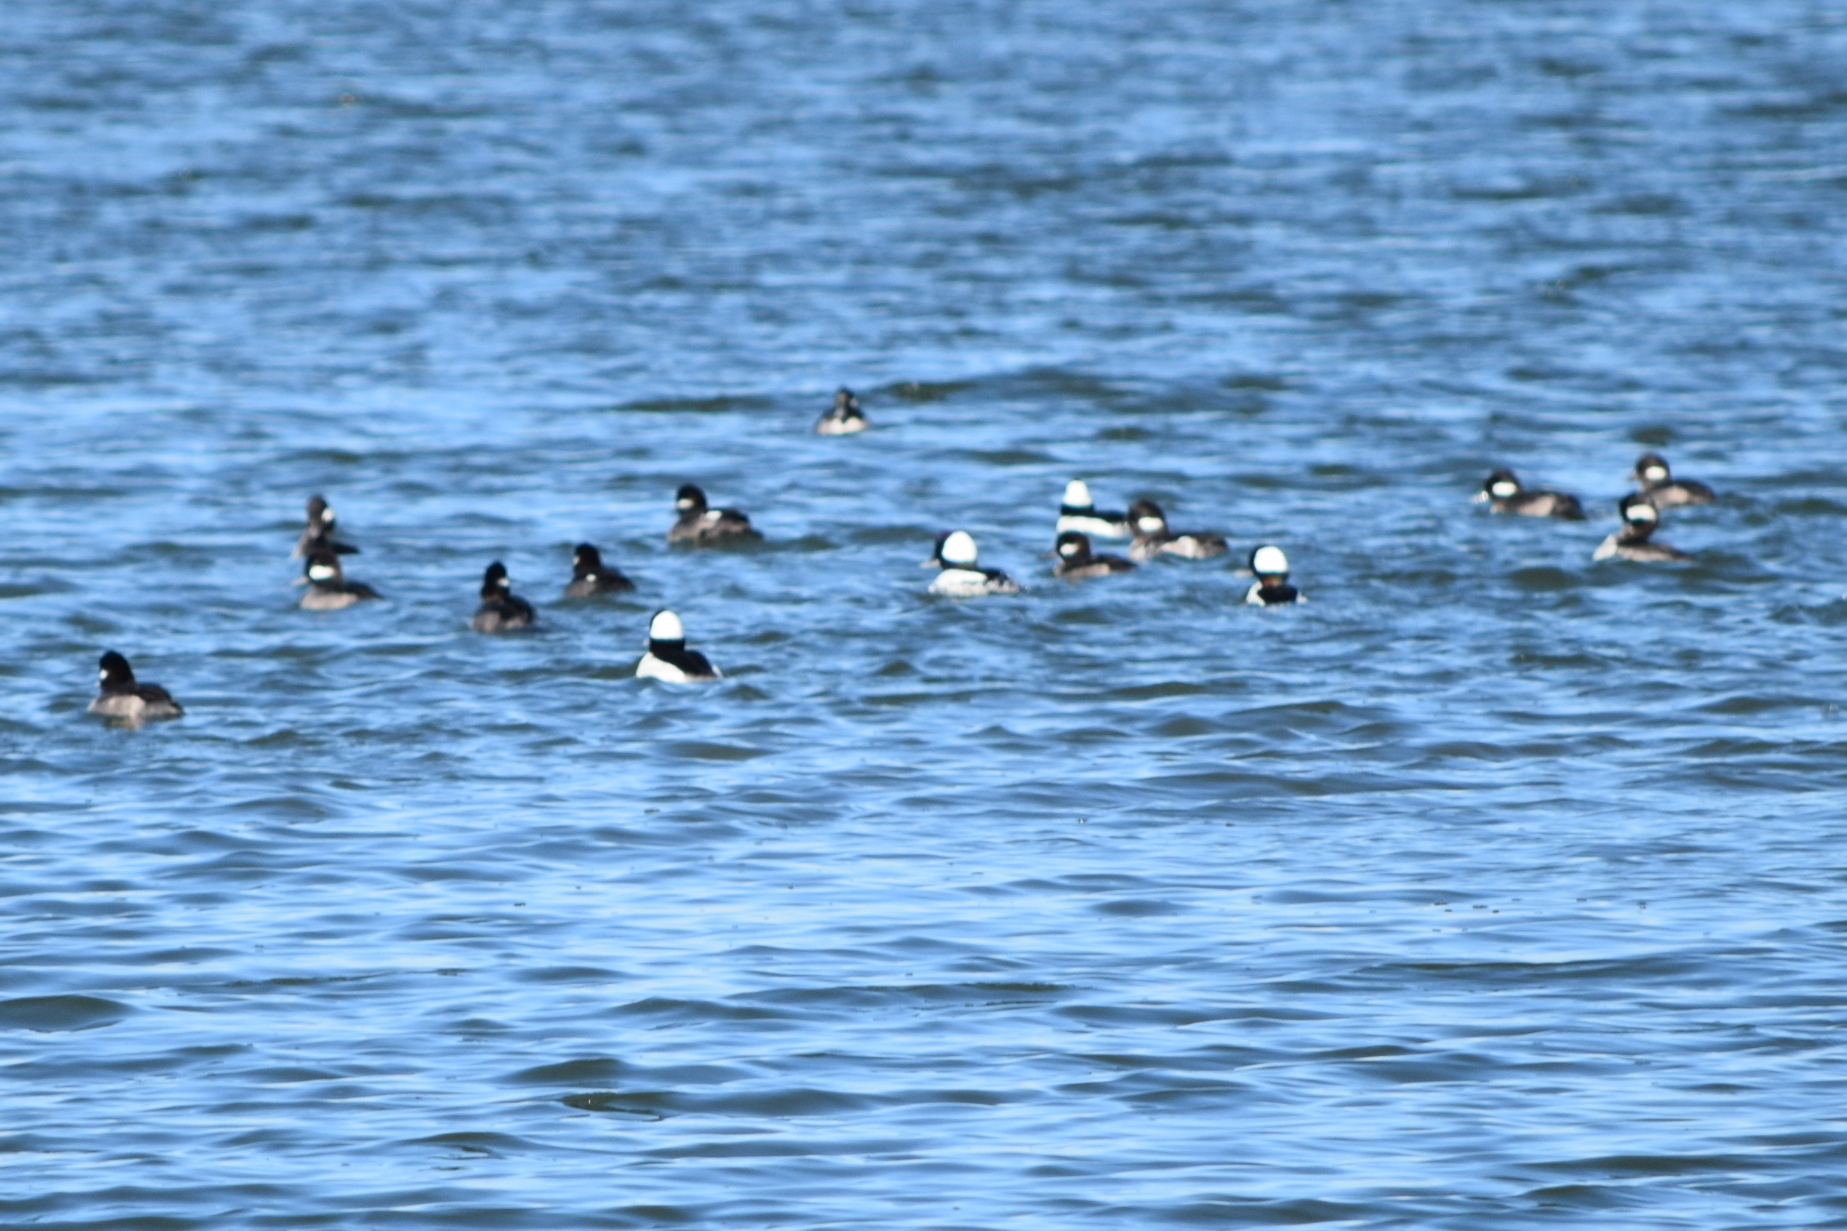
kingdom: Animalia
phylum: Chordata
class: Aves
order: Anseriformes
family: Anatidae
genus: Bucephala
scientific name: Bucephala albeola
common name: Bufflehead
